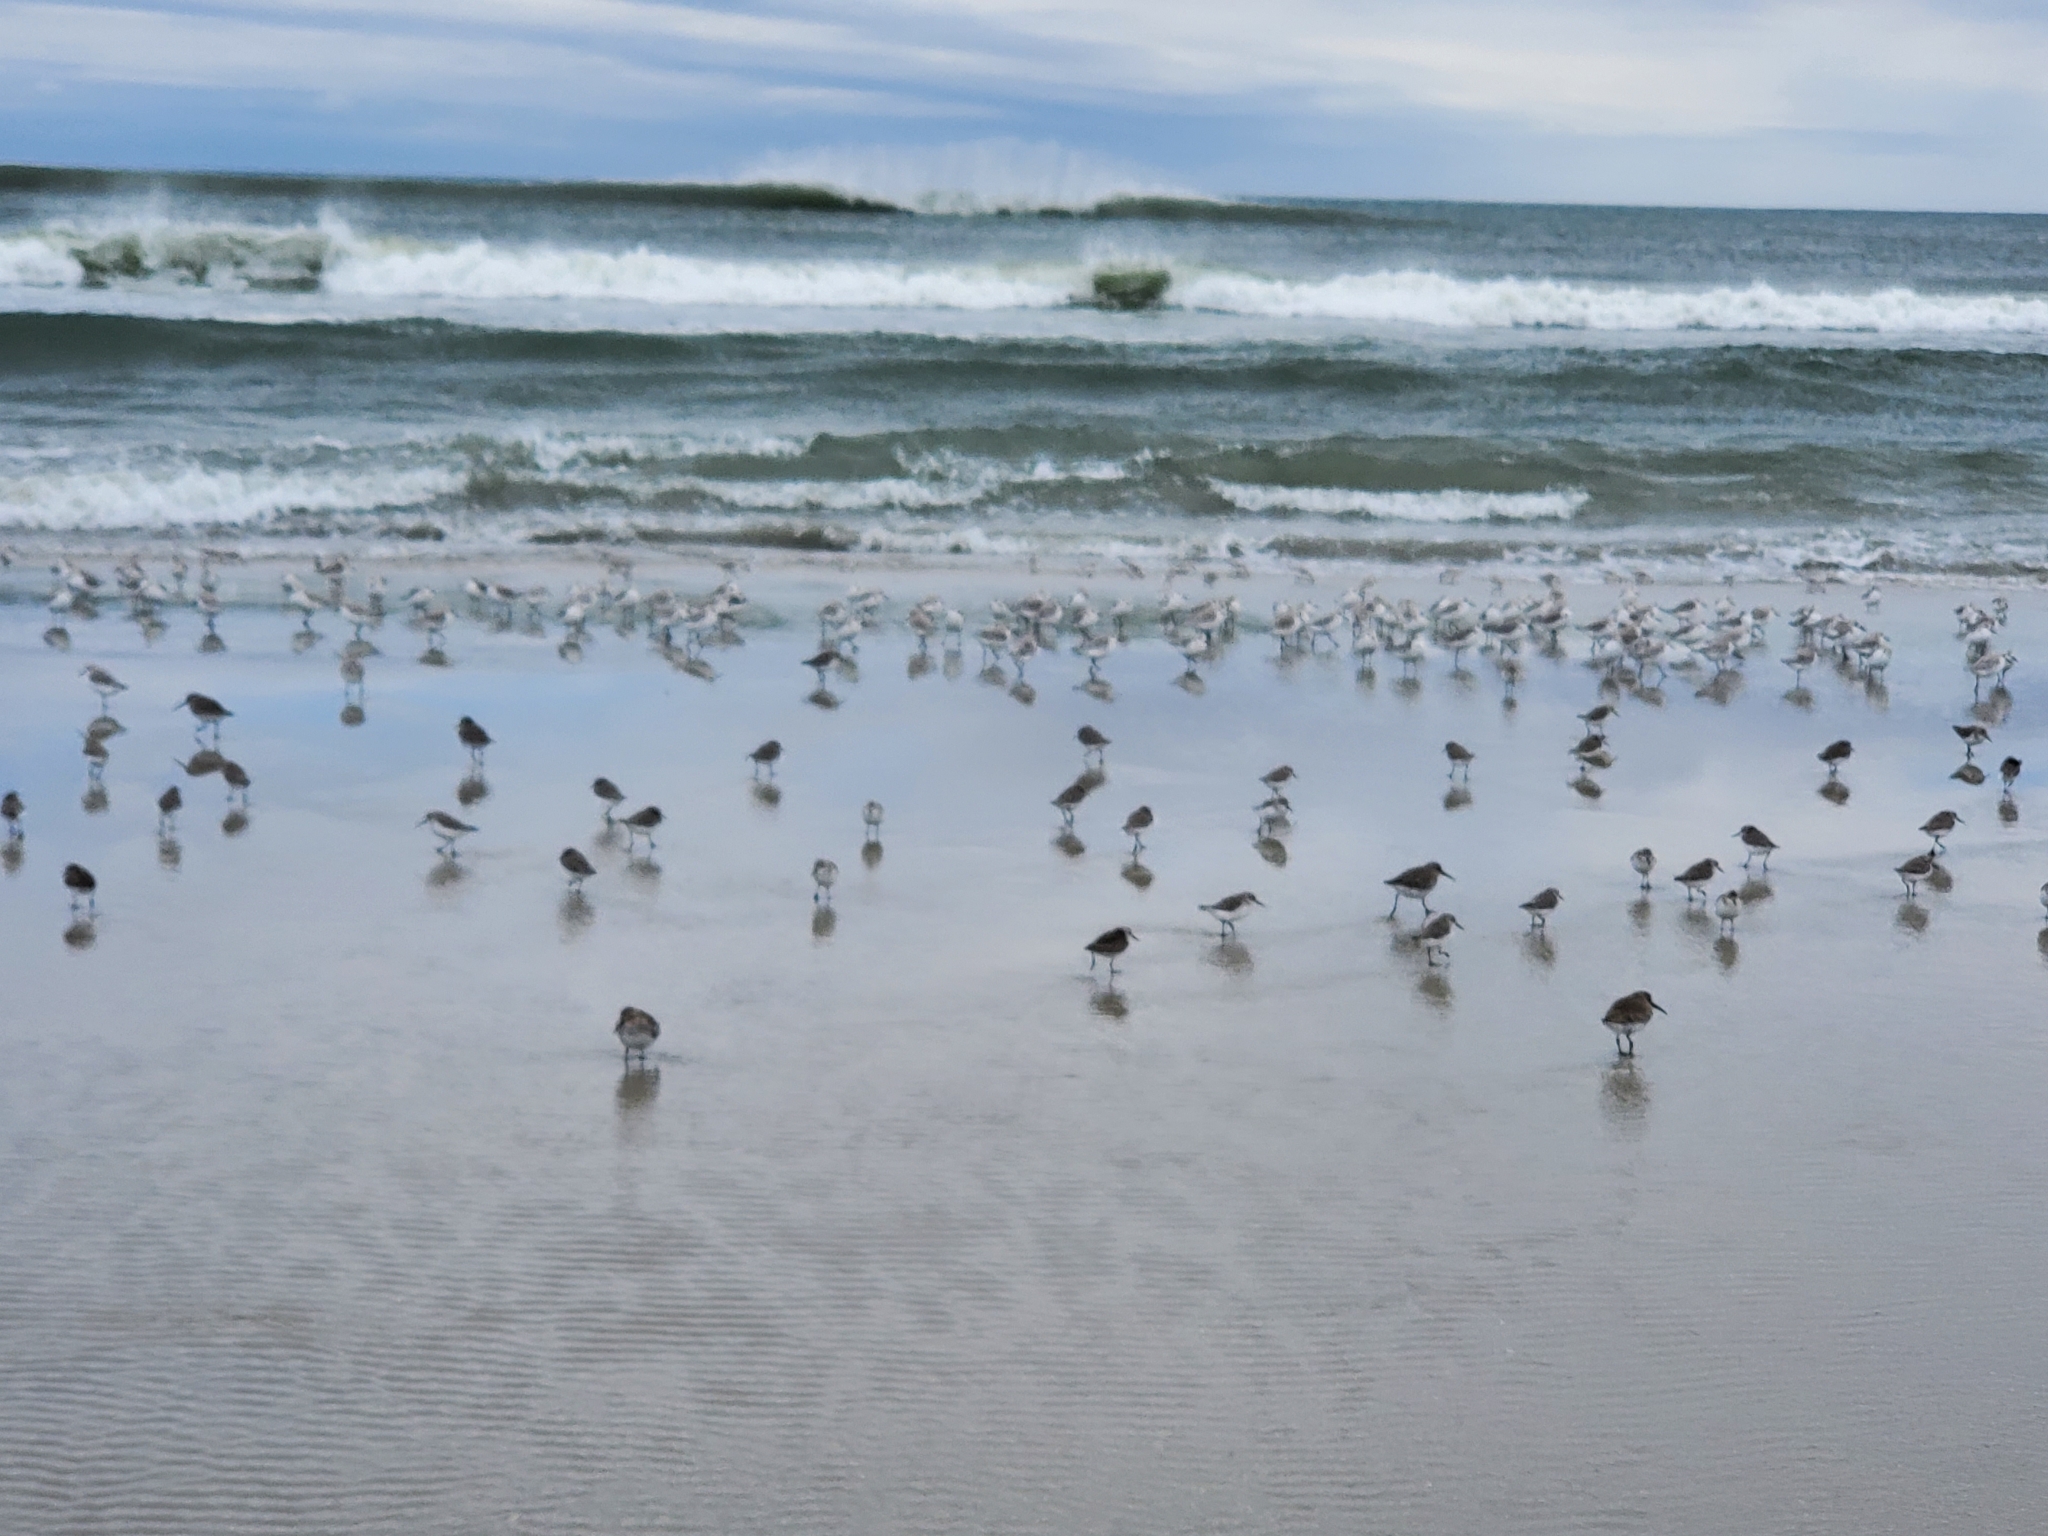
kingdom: Animalia
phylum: Chordata
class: Aves
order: Charadriiformes
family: Scolopacidae
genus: Calidris
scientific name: Calidris alba
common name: Sanderling
